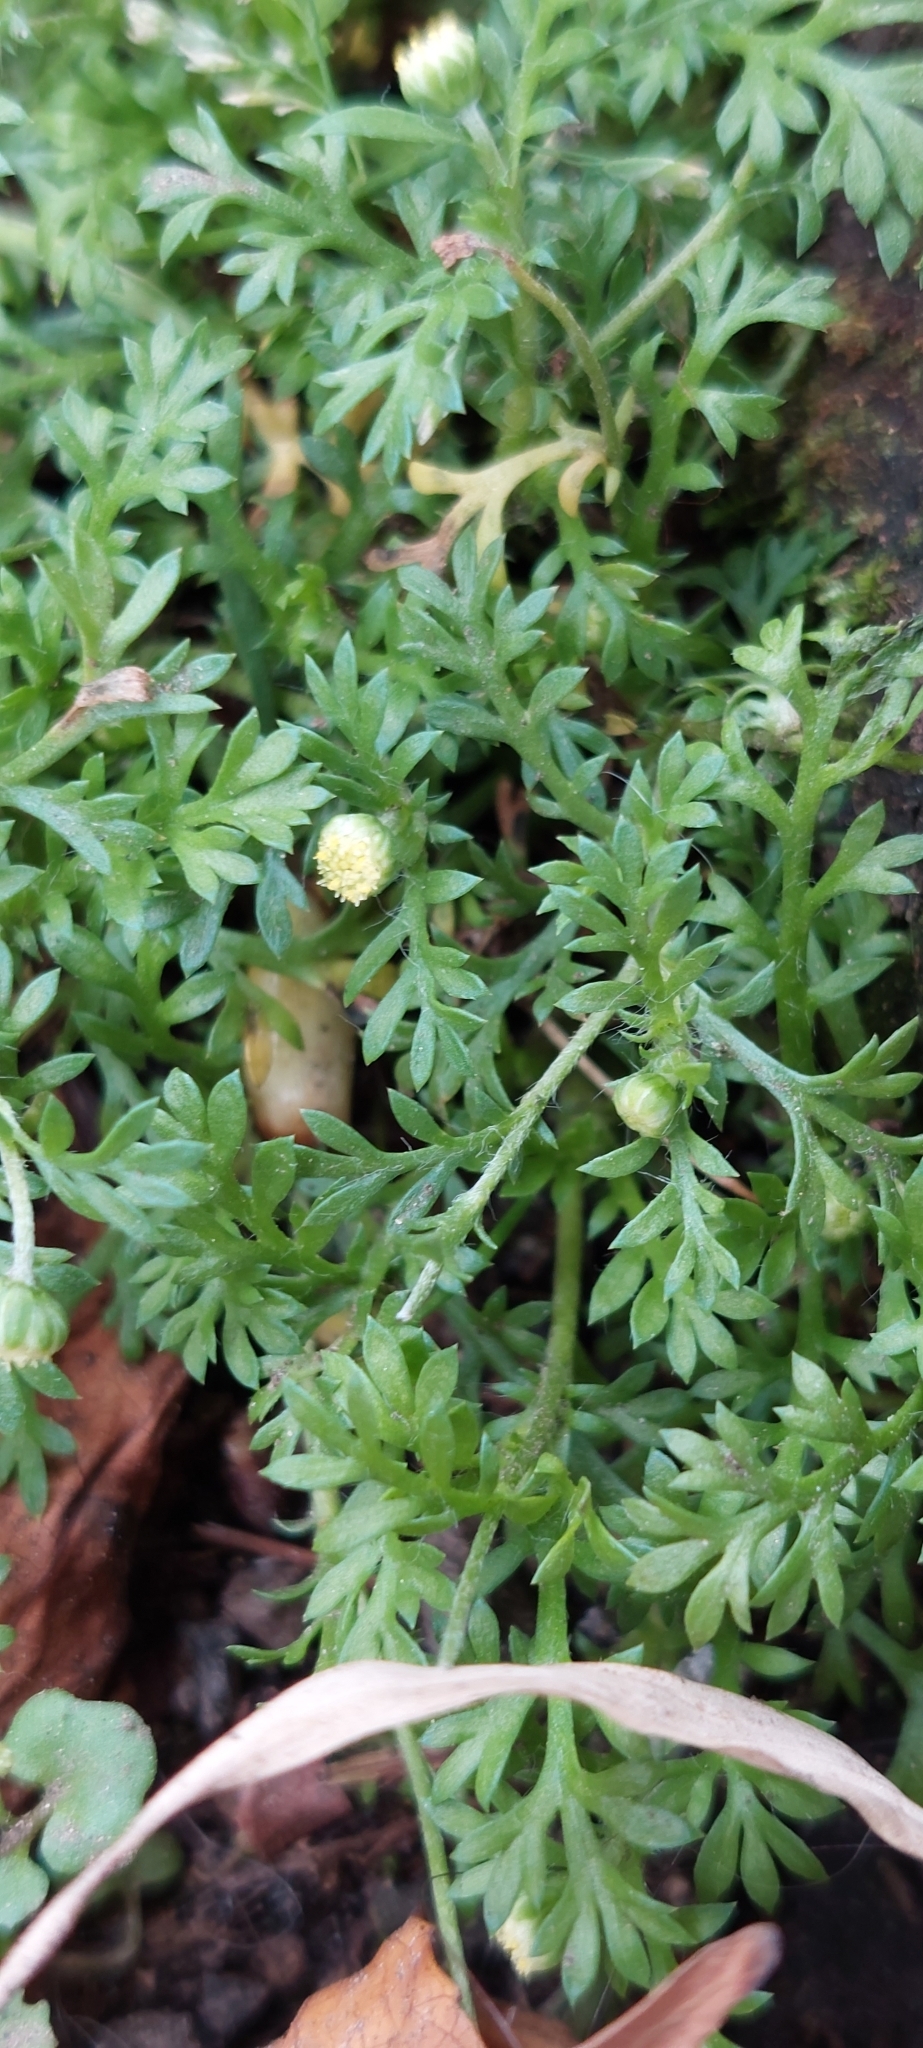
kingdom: Plantae
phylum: Tracheophyta
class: Magnoliopsida
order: Asterales
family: Asteraceae
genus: Cotula
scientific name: Cotula australis
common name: Australian waterbuttons
